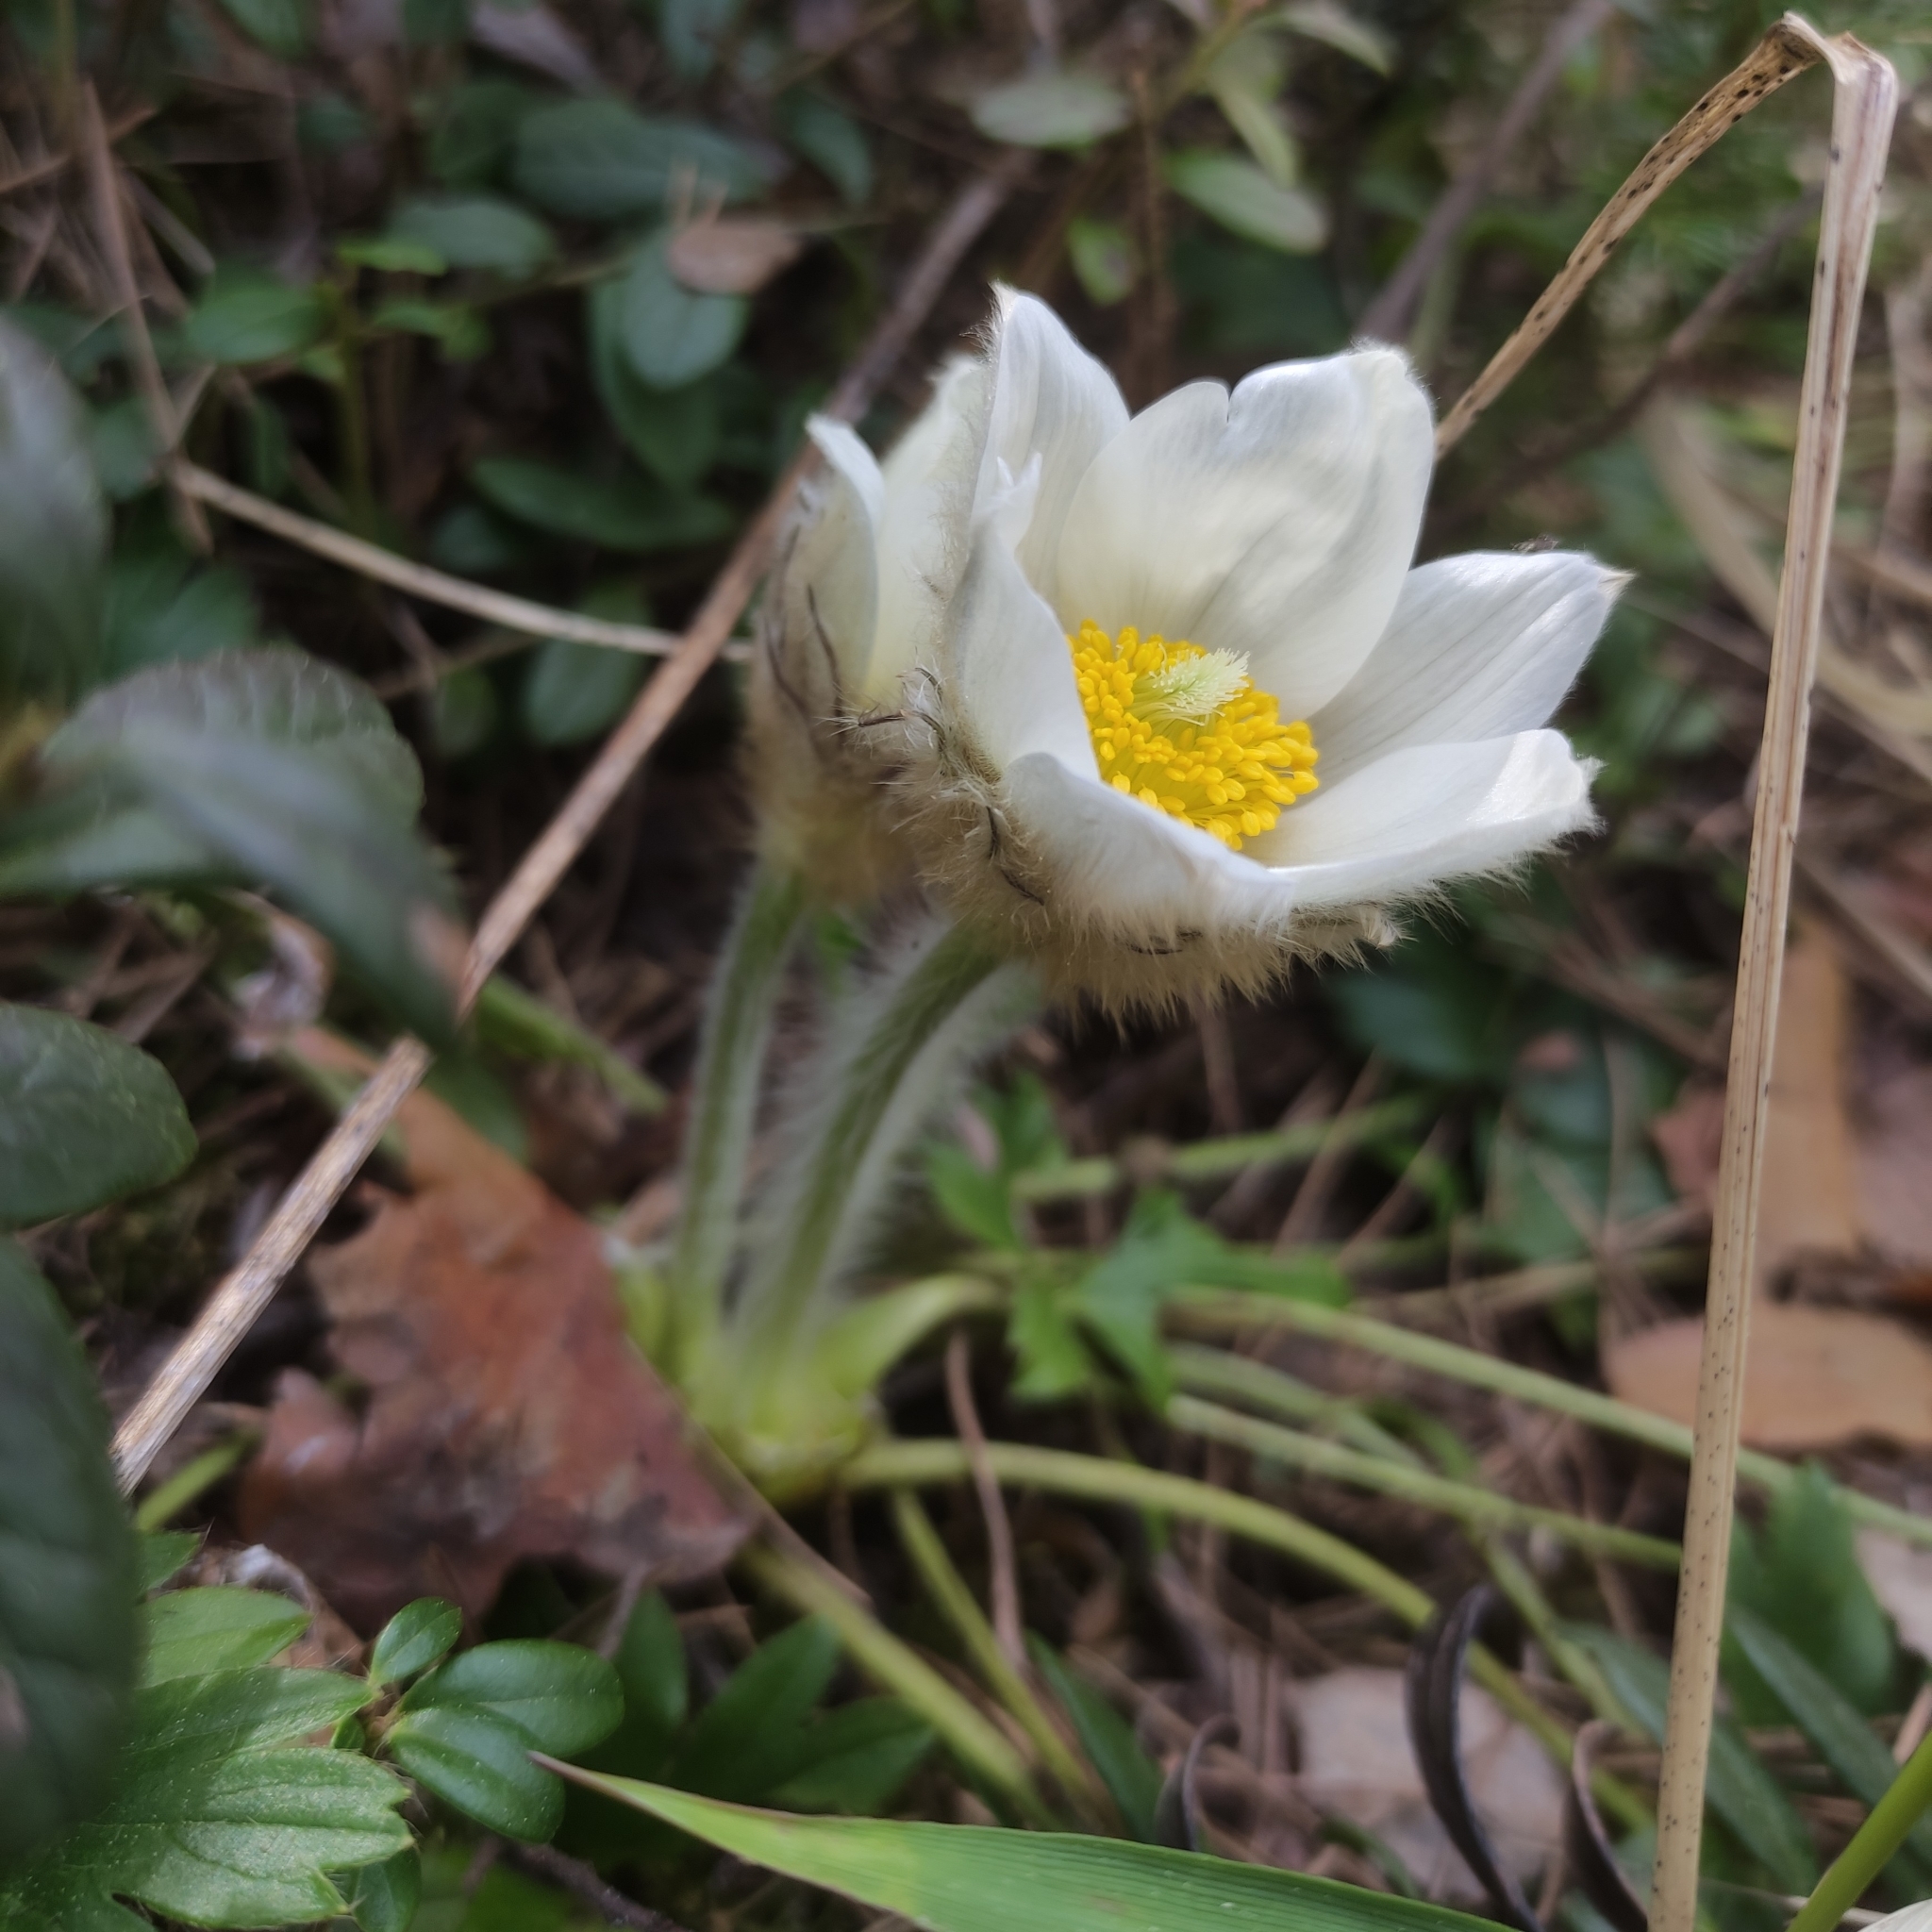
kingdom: Plantae
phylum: Tracheophyta
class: Magnoliopsida
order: Ranunculales
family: Ranunculaceae
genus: Pulsatilla
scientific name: Pulsatilla vernalis
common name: Spring pasque flower
